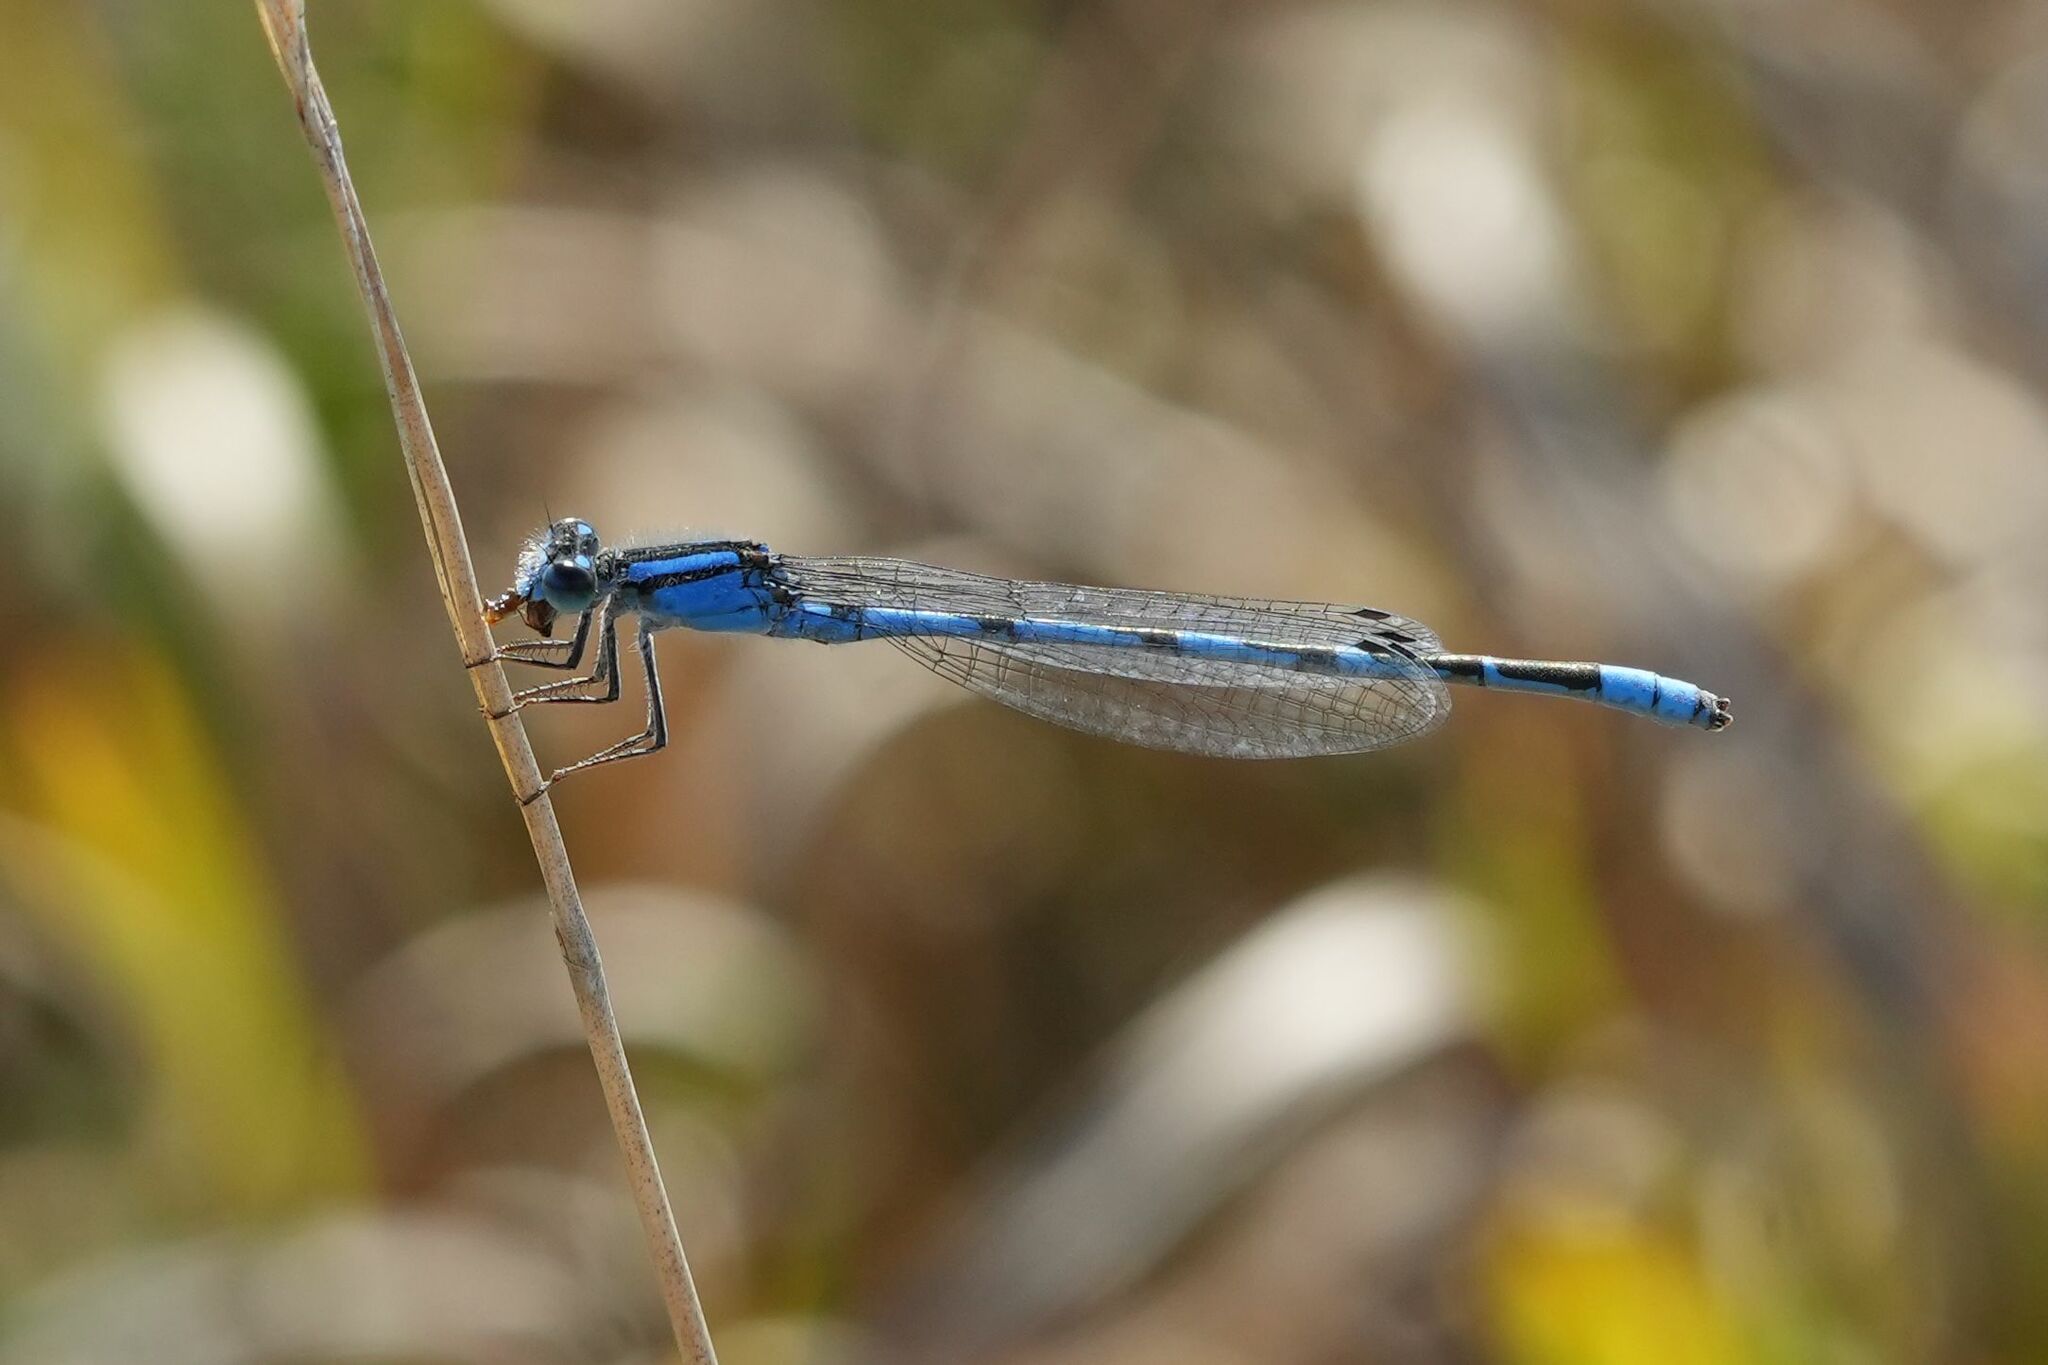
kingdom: Animalia
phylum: Arthropoda
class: Insecta
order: Odonata
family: Coenagrionidae
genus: Enallagma
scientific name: Enallagma civile
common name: Damselfly
